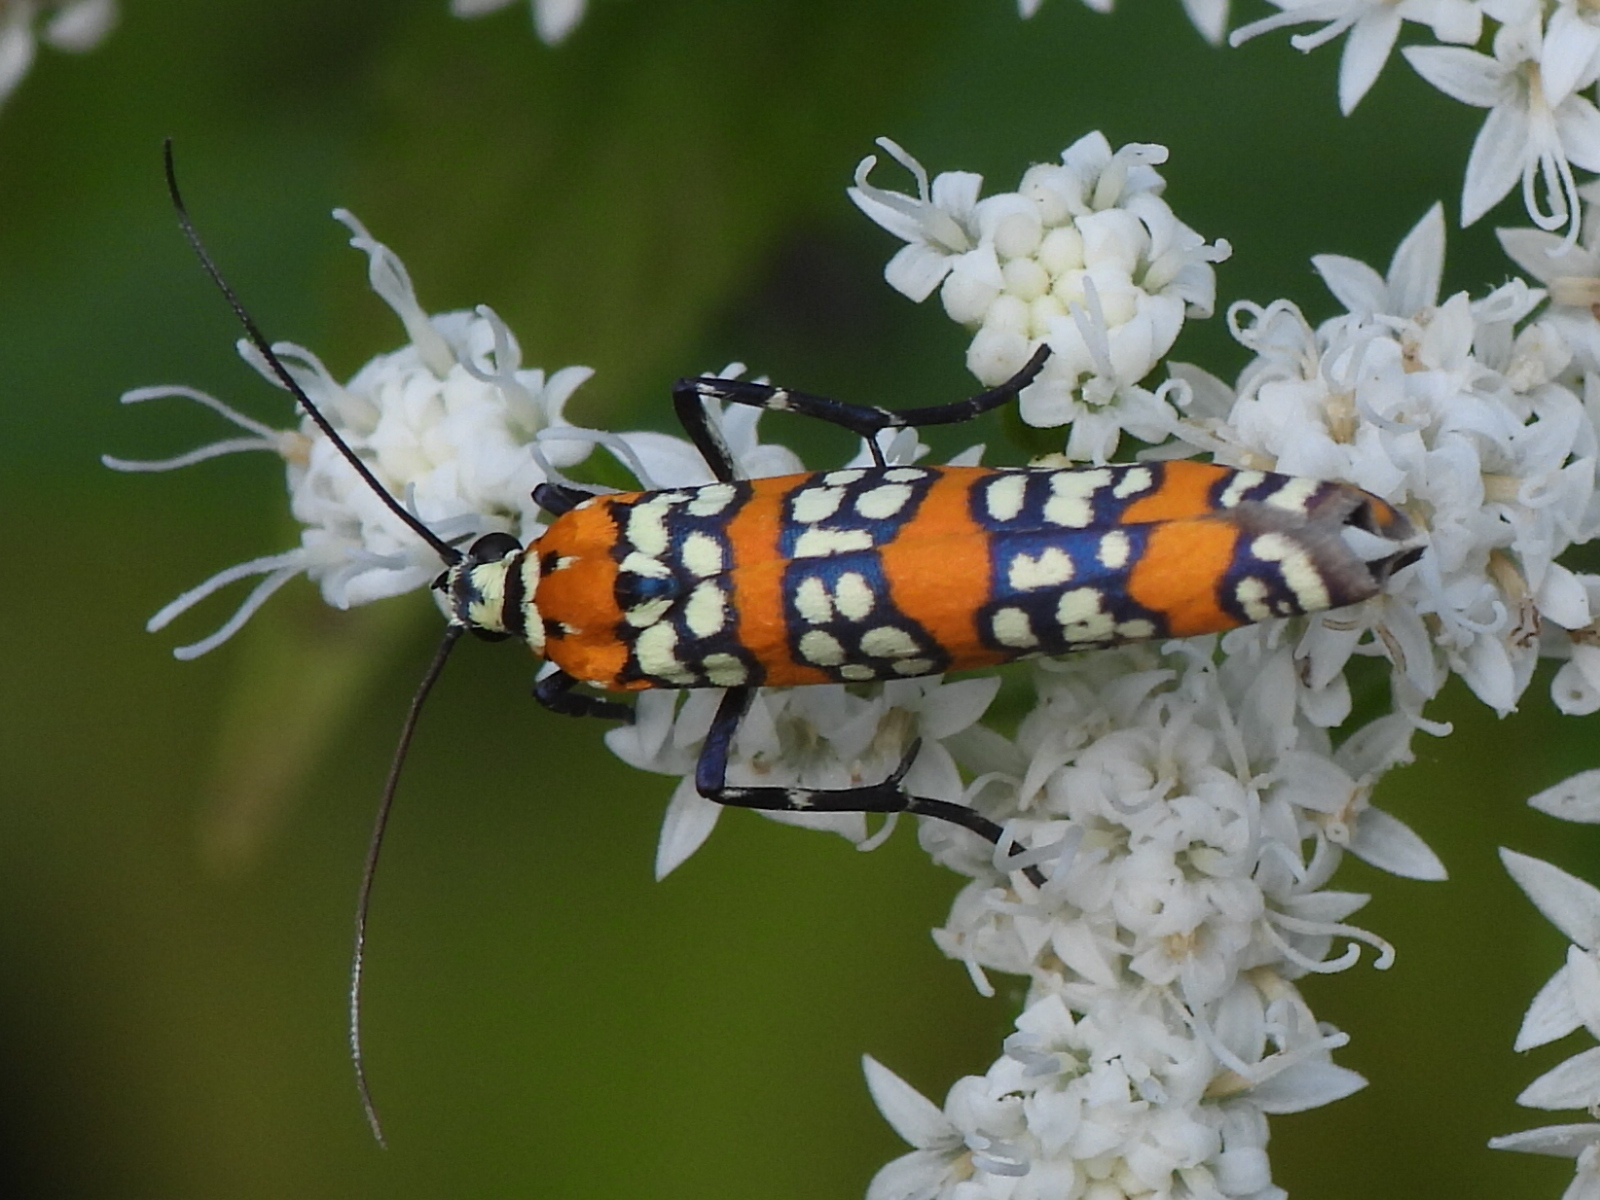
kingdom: Animalia
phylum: Arthropoda
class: Insecta
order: Lepidoptera
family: Attevidae
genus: Atteva
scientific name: Atteva punctella
